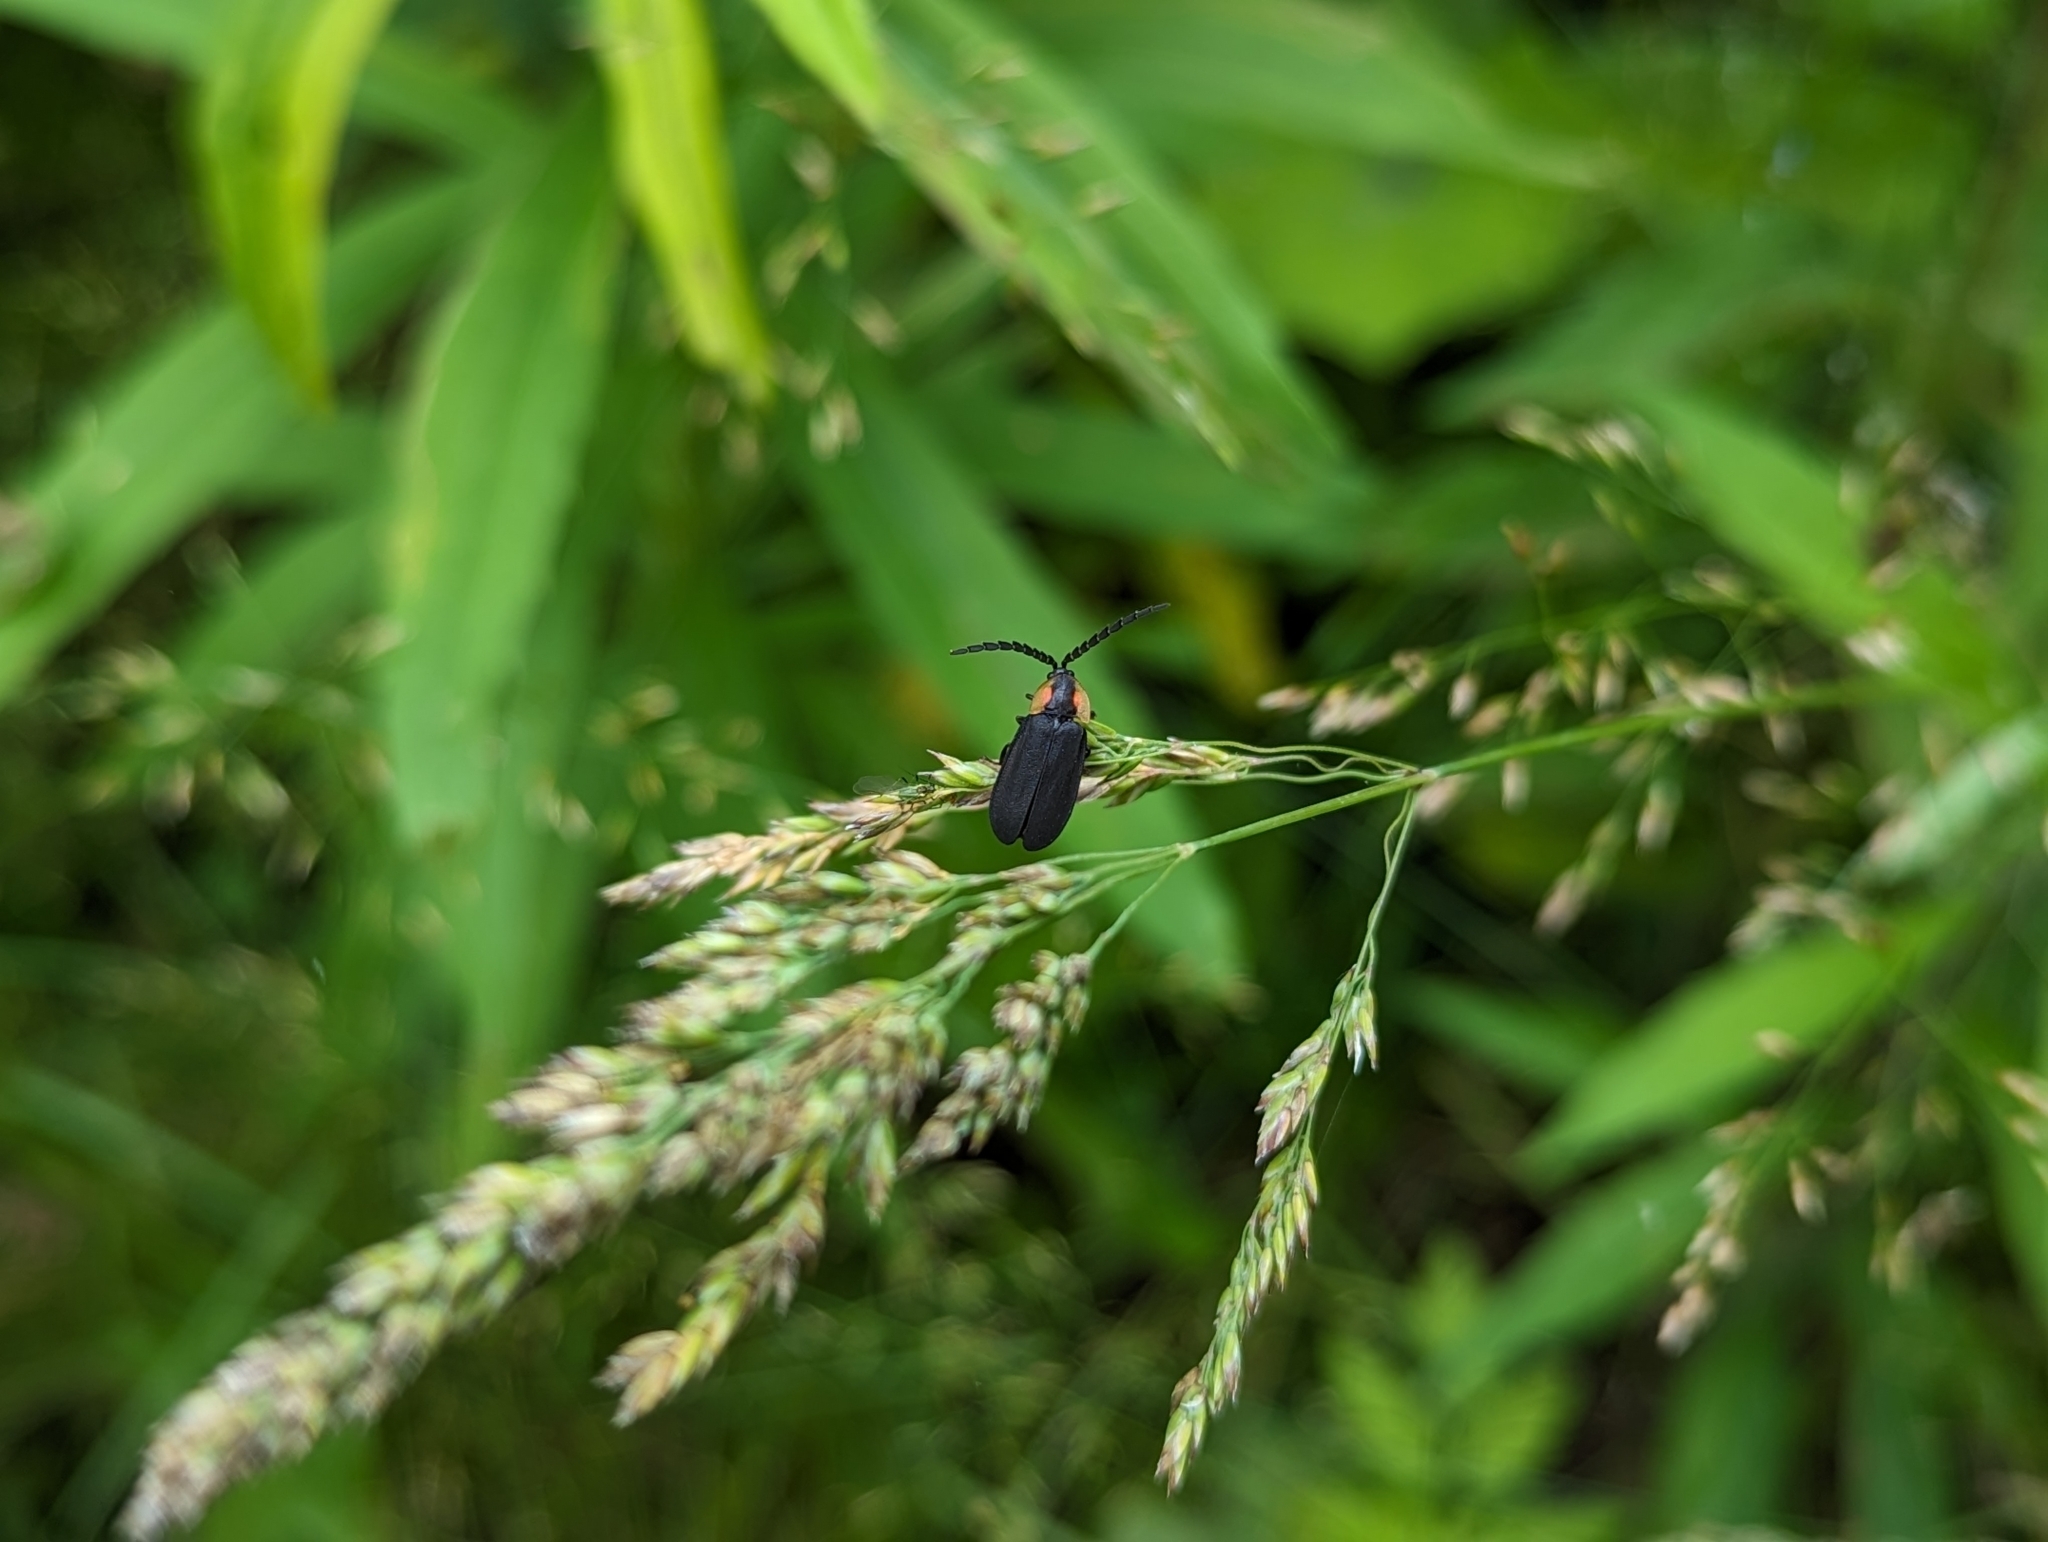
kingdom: Animalia
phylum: Arthropoda
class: Insecta
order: Coleoptera
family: Lampyridae
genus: Lucidota
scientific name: Lucidota atra
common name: Black firefly
